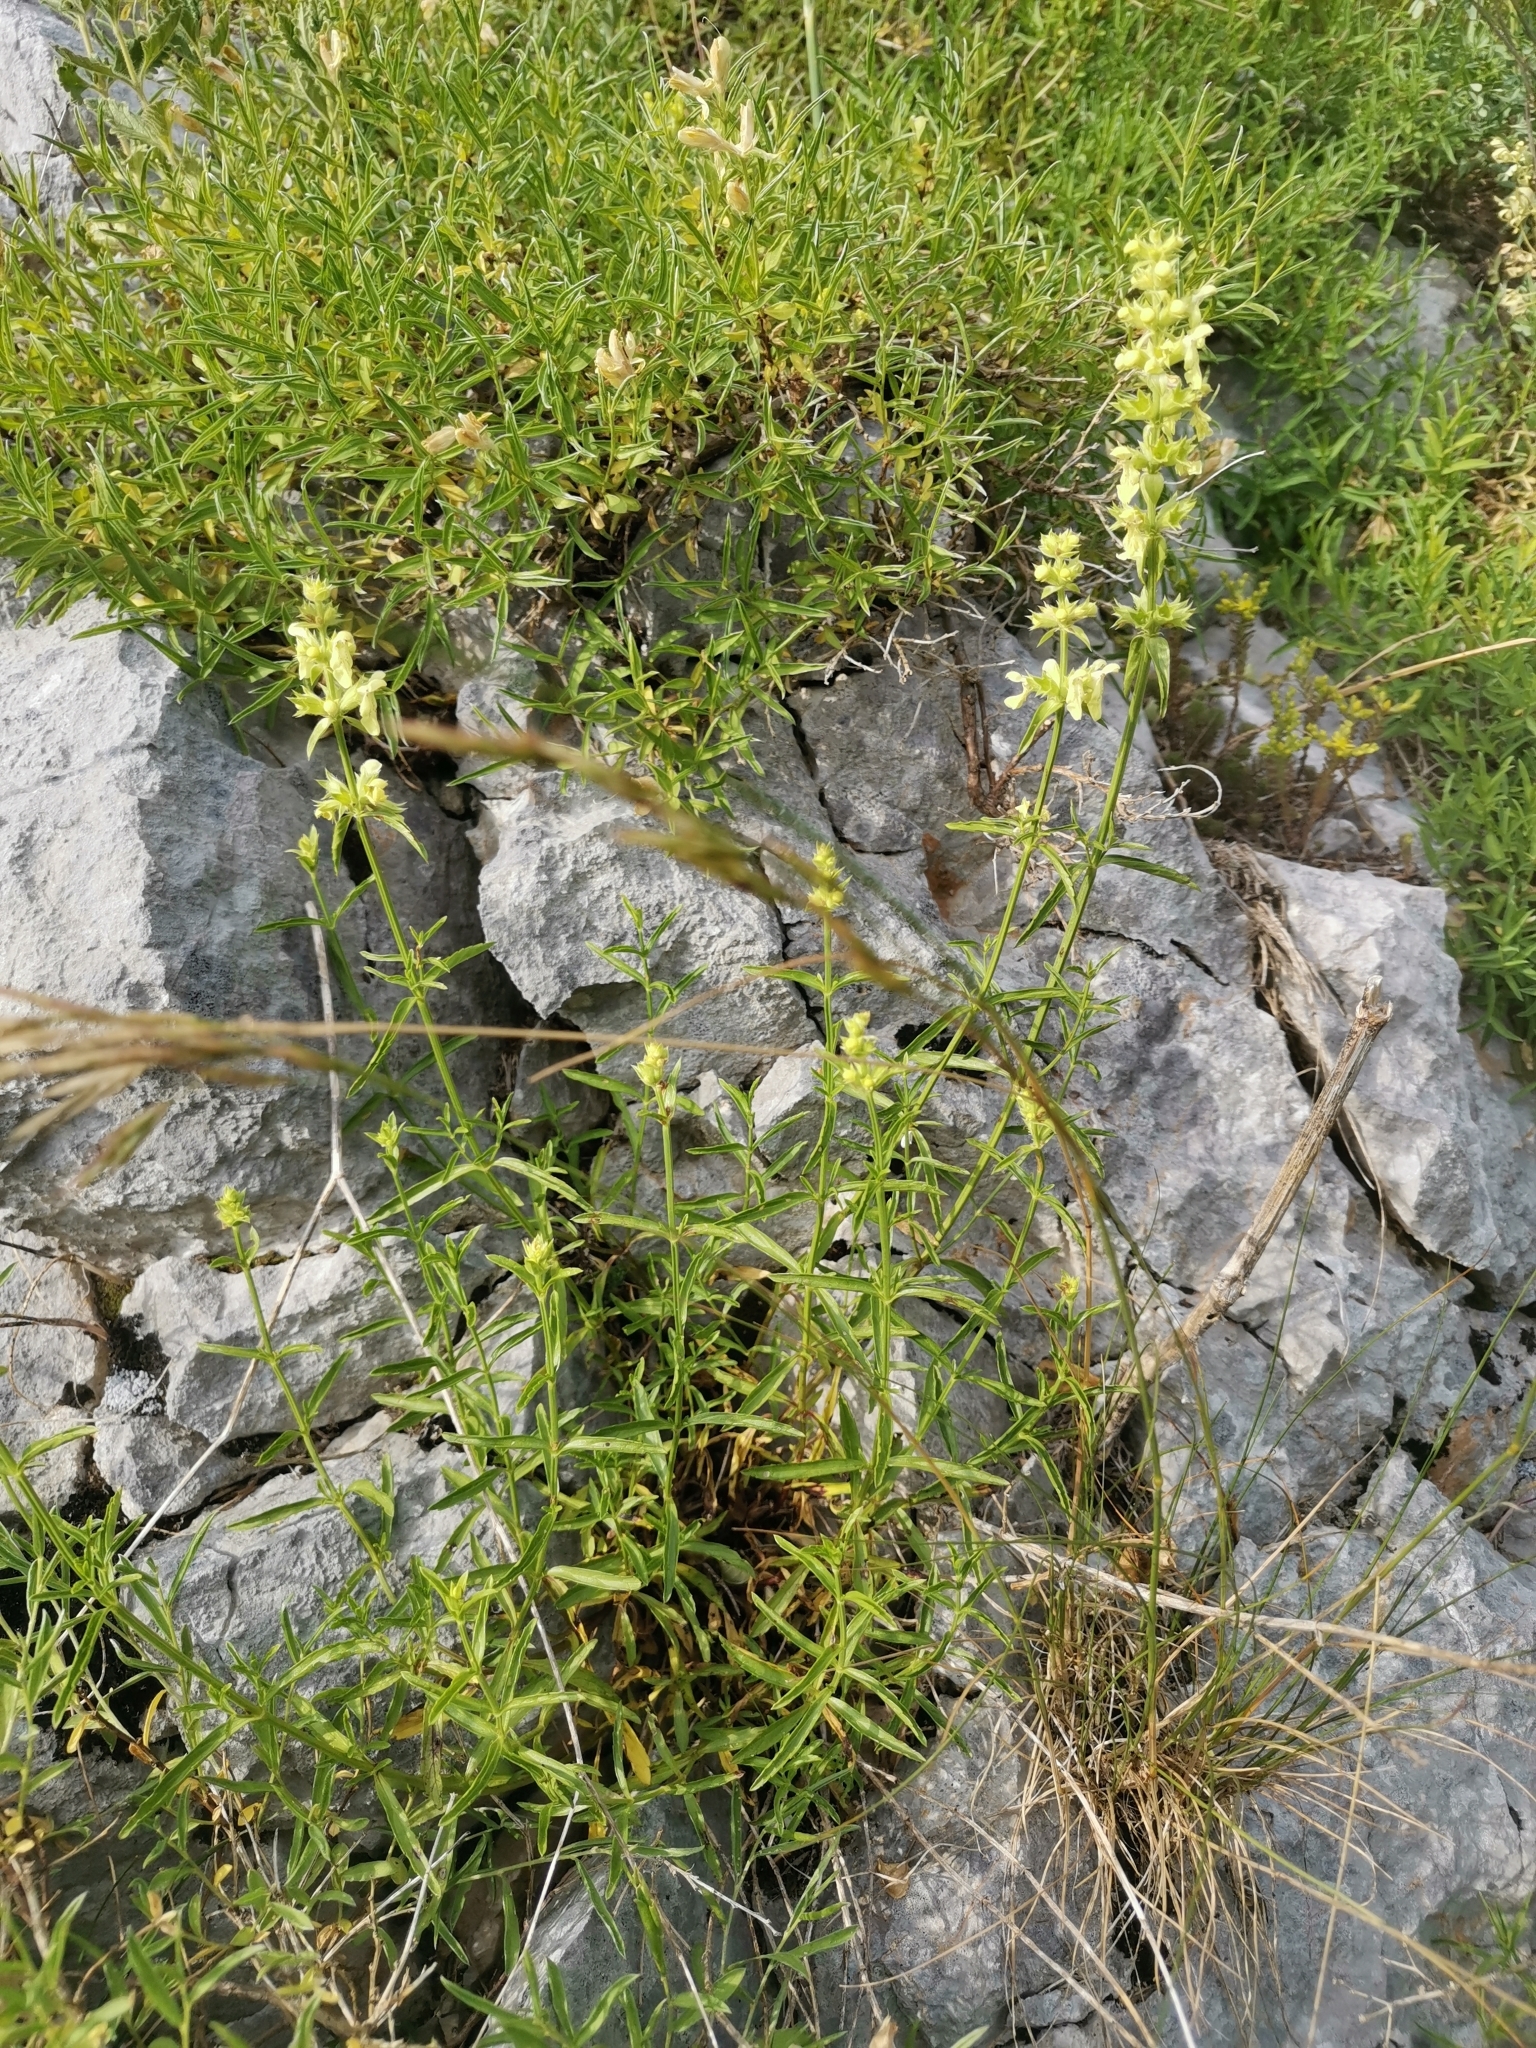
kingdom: Plantae
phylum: Tracheophyta
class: Magnoliopsida
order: Lamiales
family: Lamiaceae
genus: Stachys
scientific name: Stachys recta
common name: Perennial yellow-woundwort
